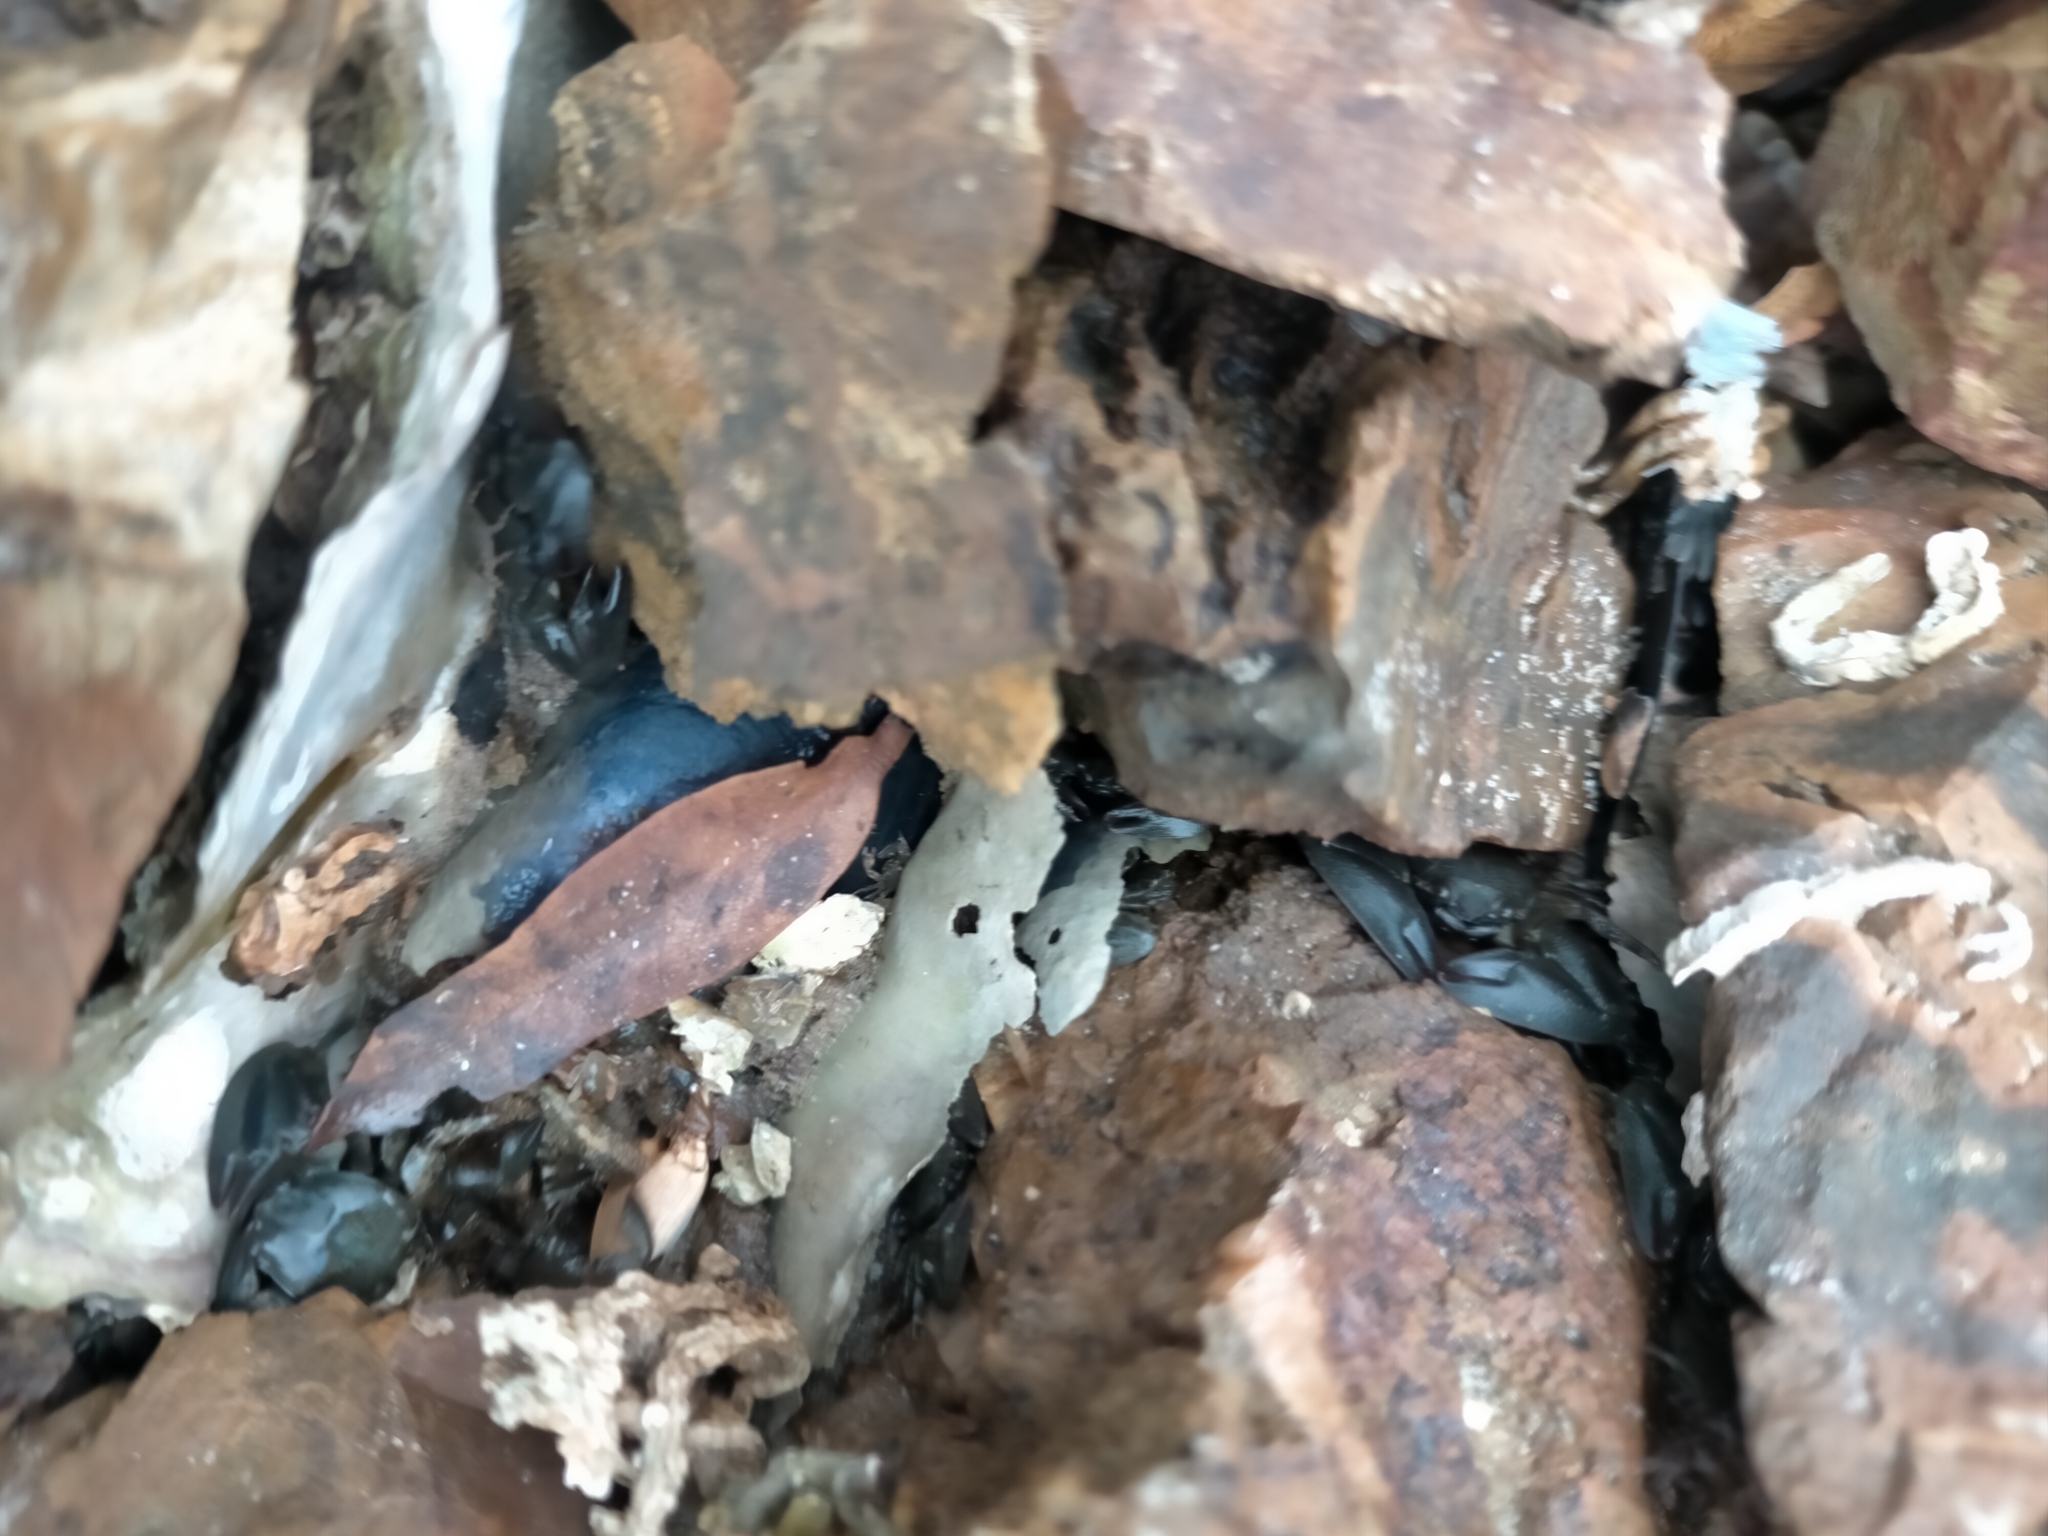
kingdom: Animalia
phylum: Arthropoda
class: Malacostraca
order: Decapoda
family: Porcellanidae
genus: Petrolisthes
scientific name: Petrolisthes elongatus
